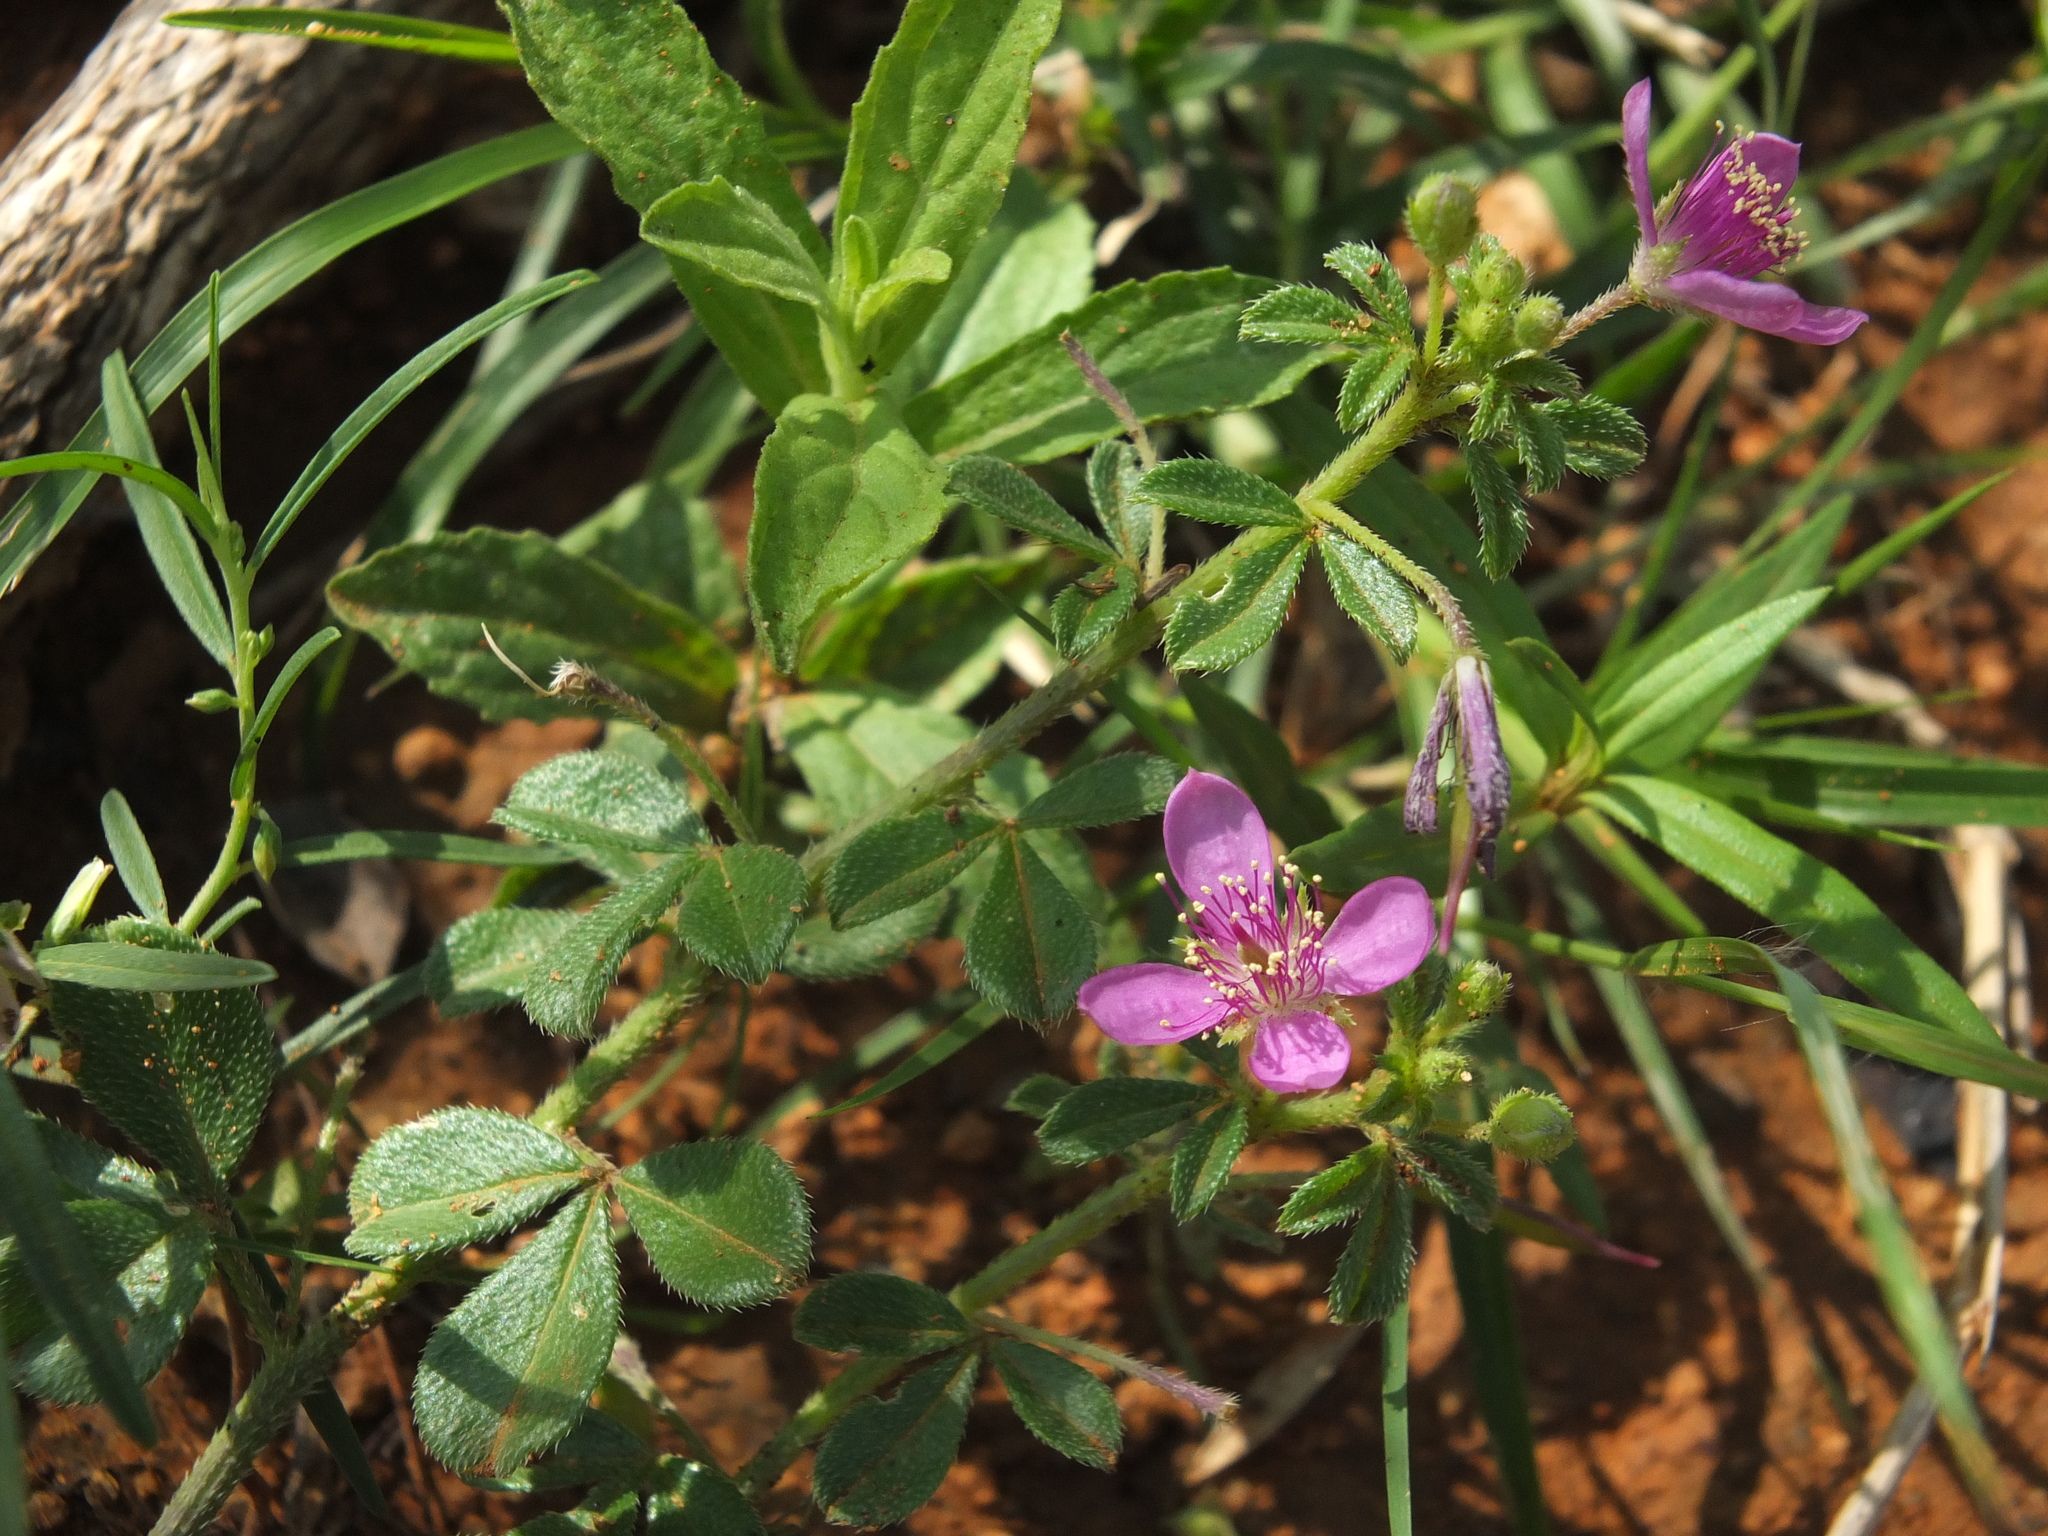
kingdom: Plantae
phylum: Tracheophyta
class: Magnoliopsida
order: Brassicales
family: Cleomaceae
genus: Corynandra
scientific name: Corynandra felina
